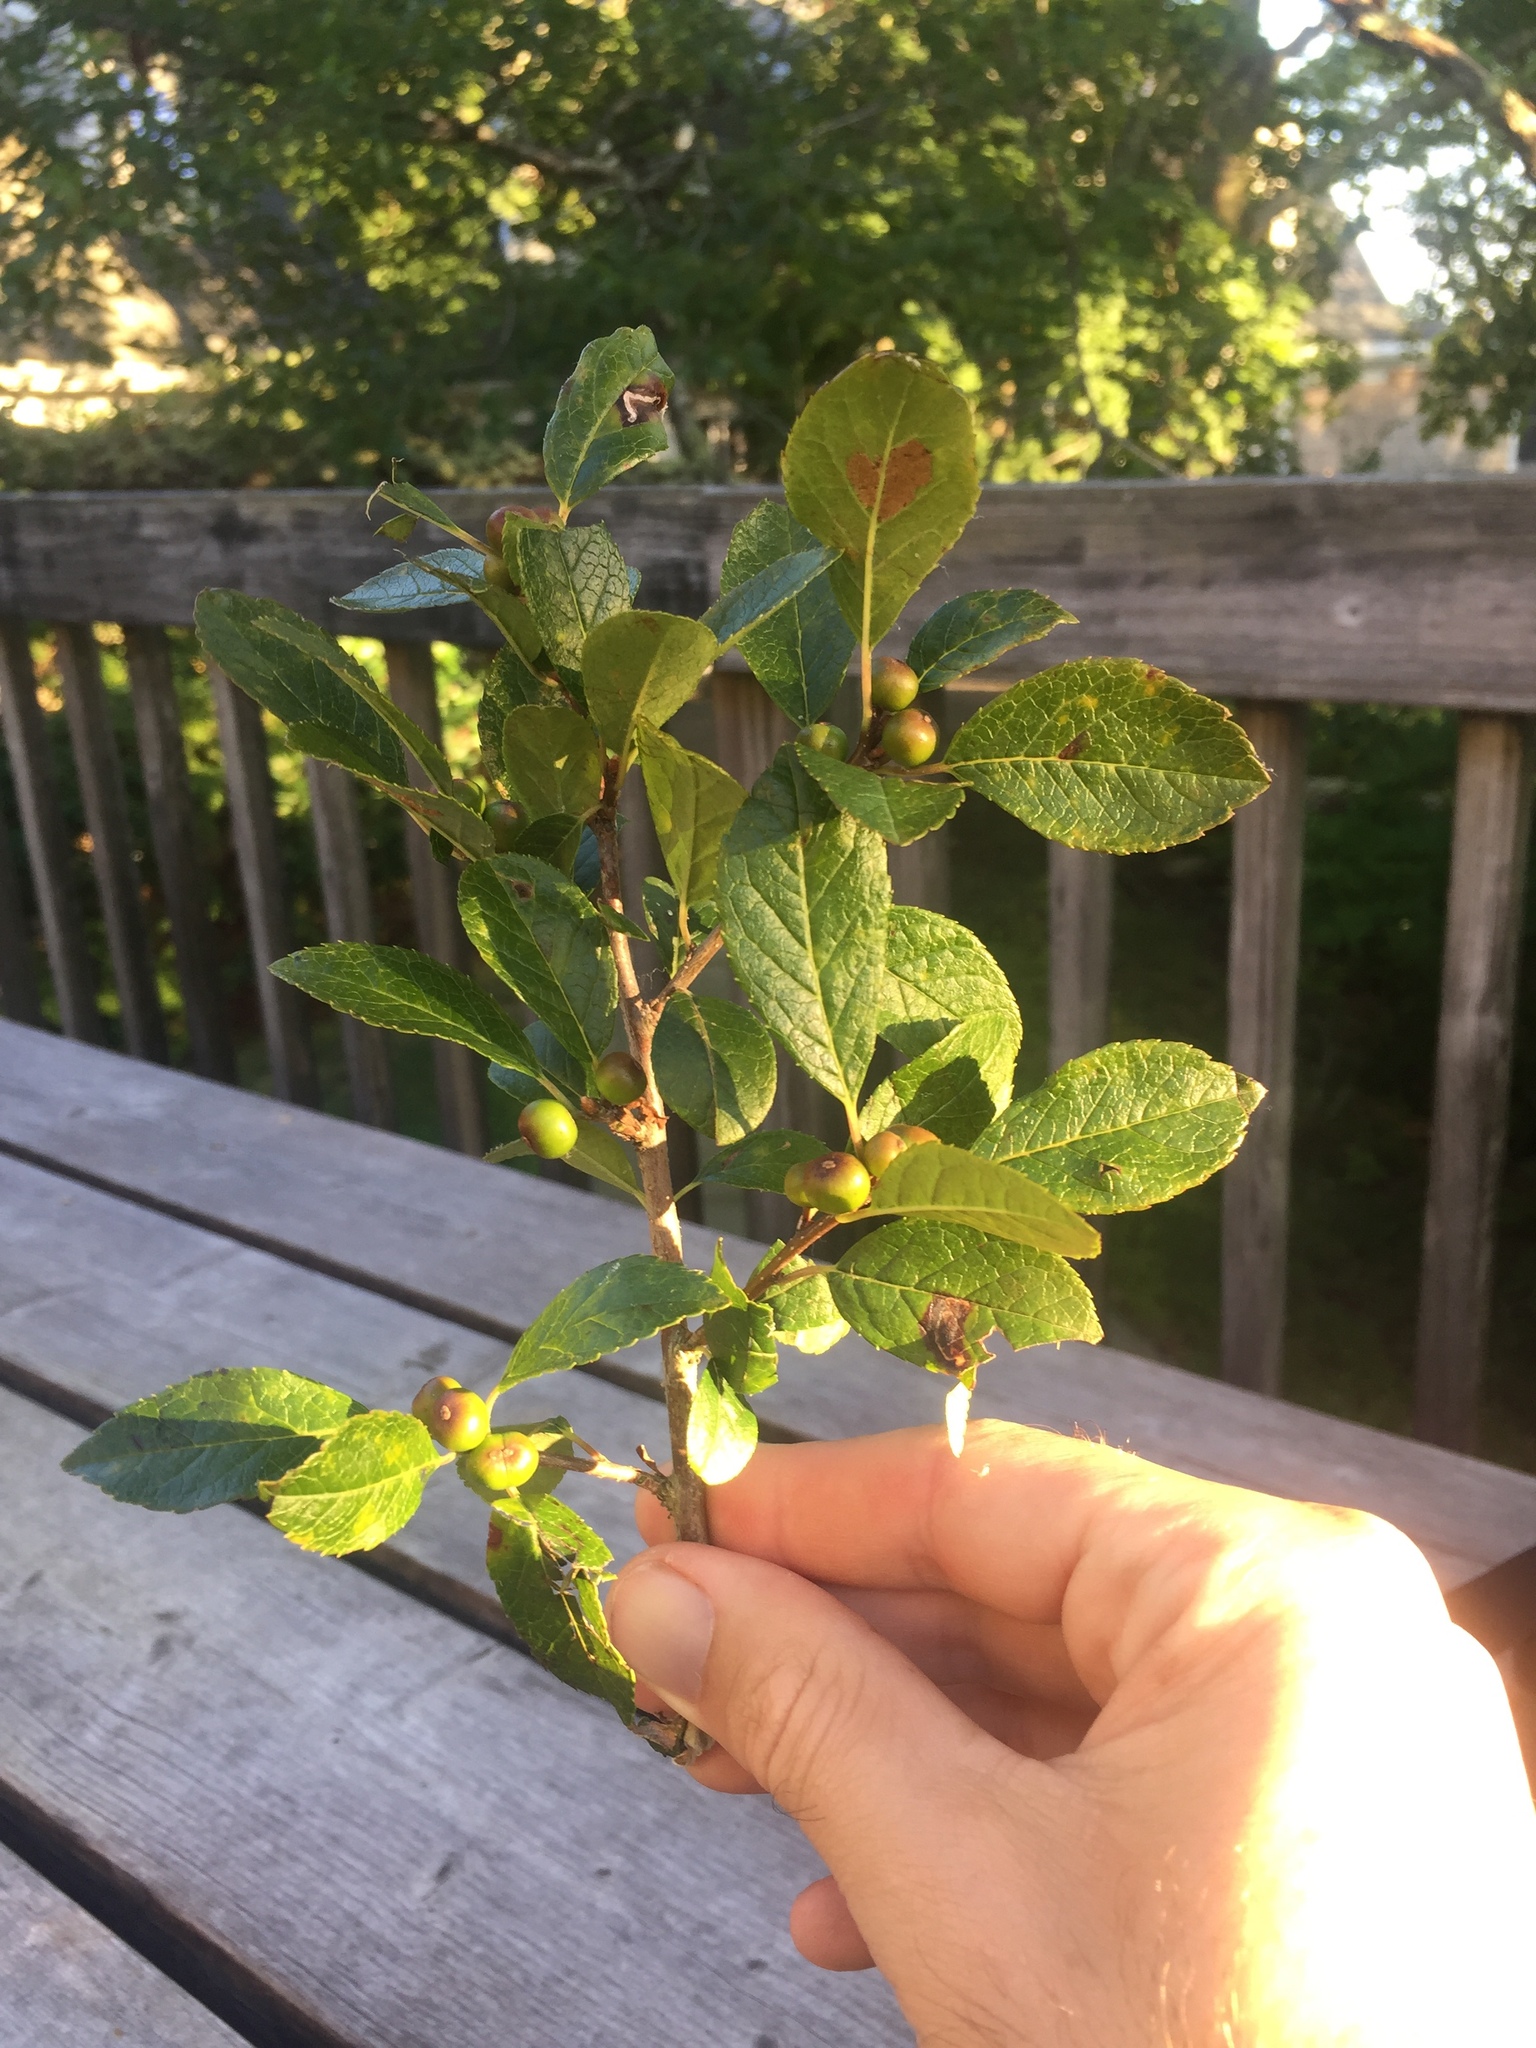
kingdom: Plantae
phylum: Tracheophyta
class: Magnoliopsida
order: Aquifoliales
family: Aquifoliaceae
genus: Ilex
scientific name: Ilex verticillata
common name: Virginia winterberry
